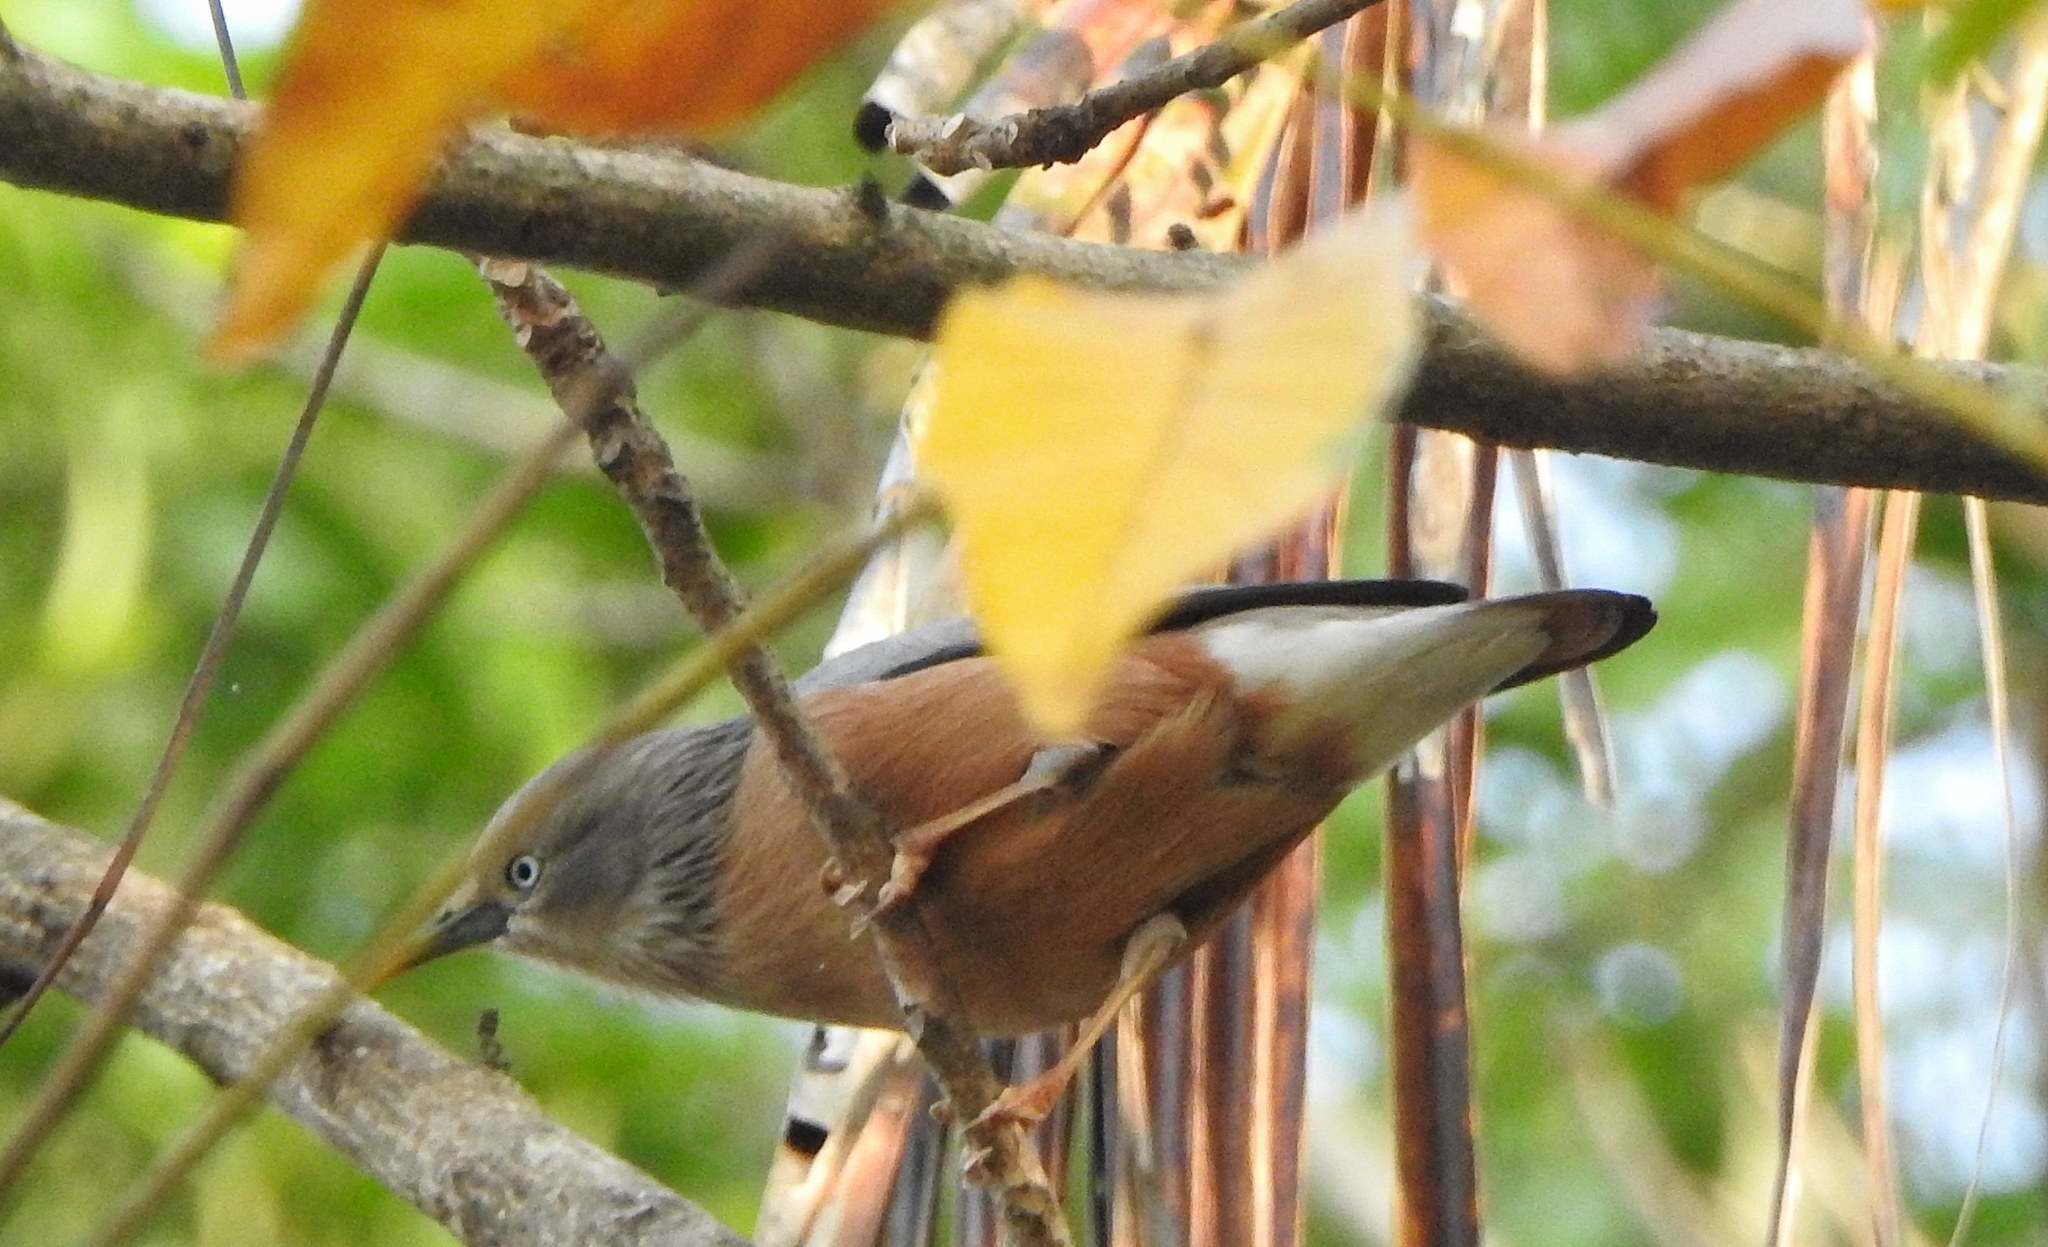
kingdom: Animalia
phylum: Chordata
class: Aves
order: Passeriformes
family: Sturnidae
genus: Sturnia
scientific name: Sturnia malabarica
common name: Chestnut-tailed starling
